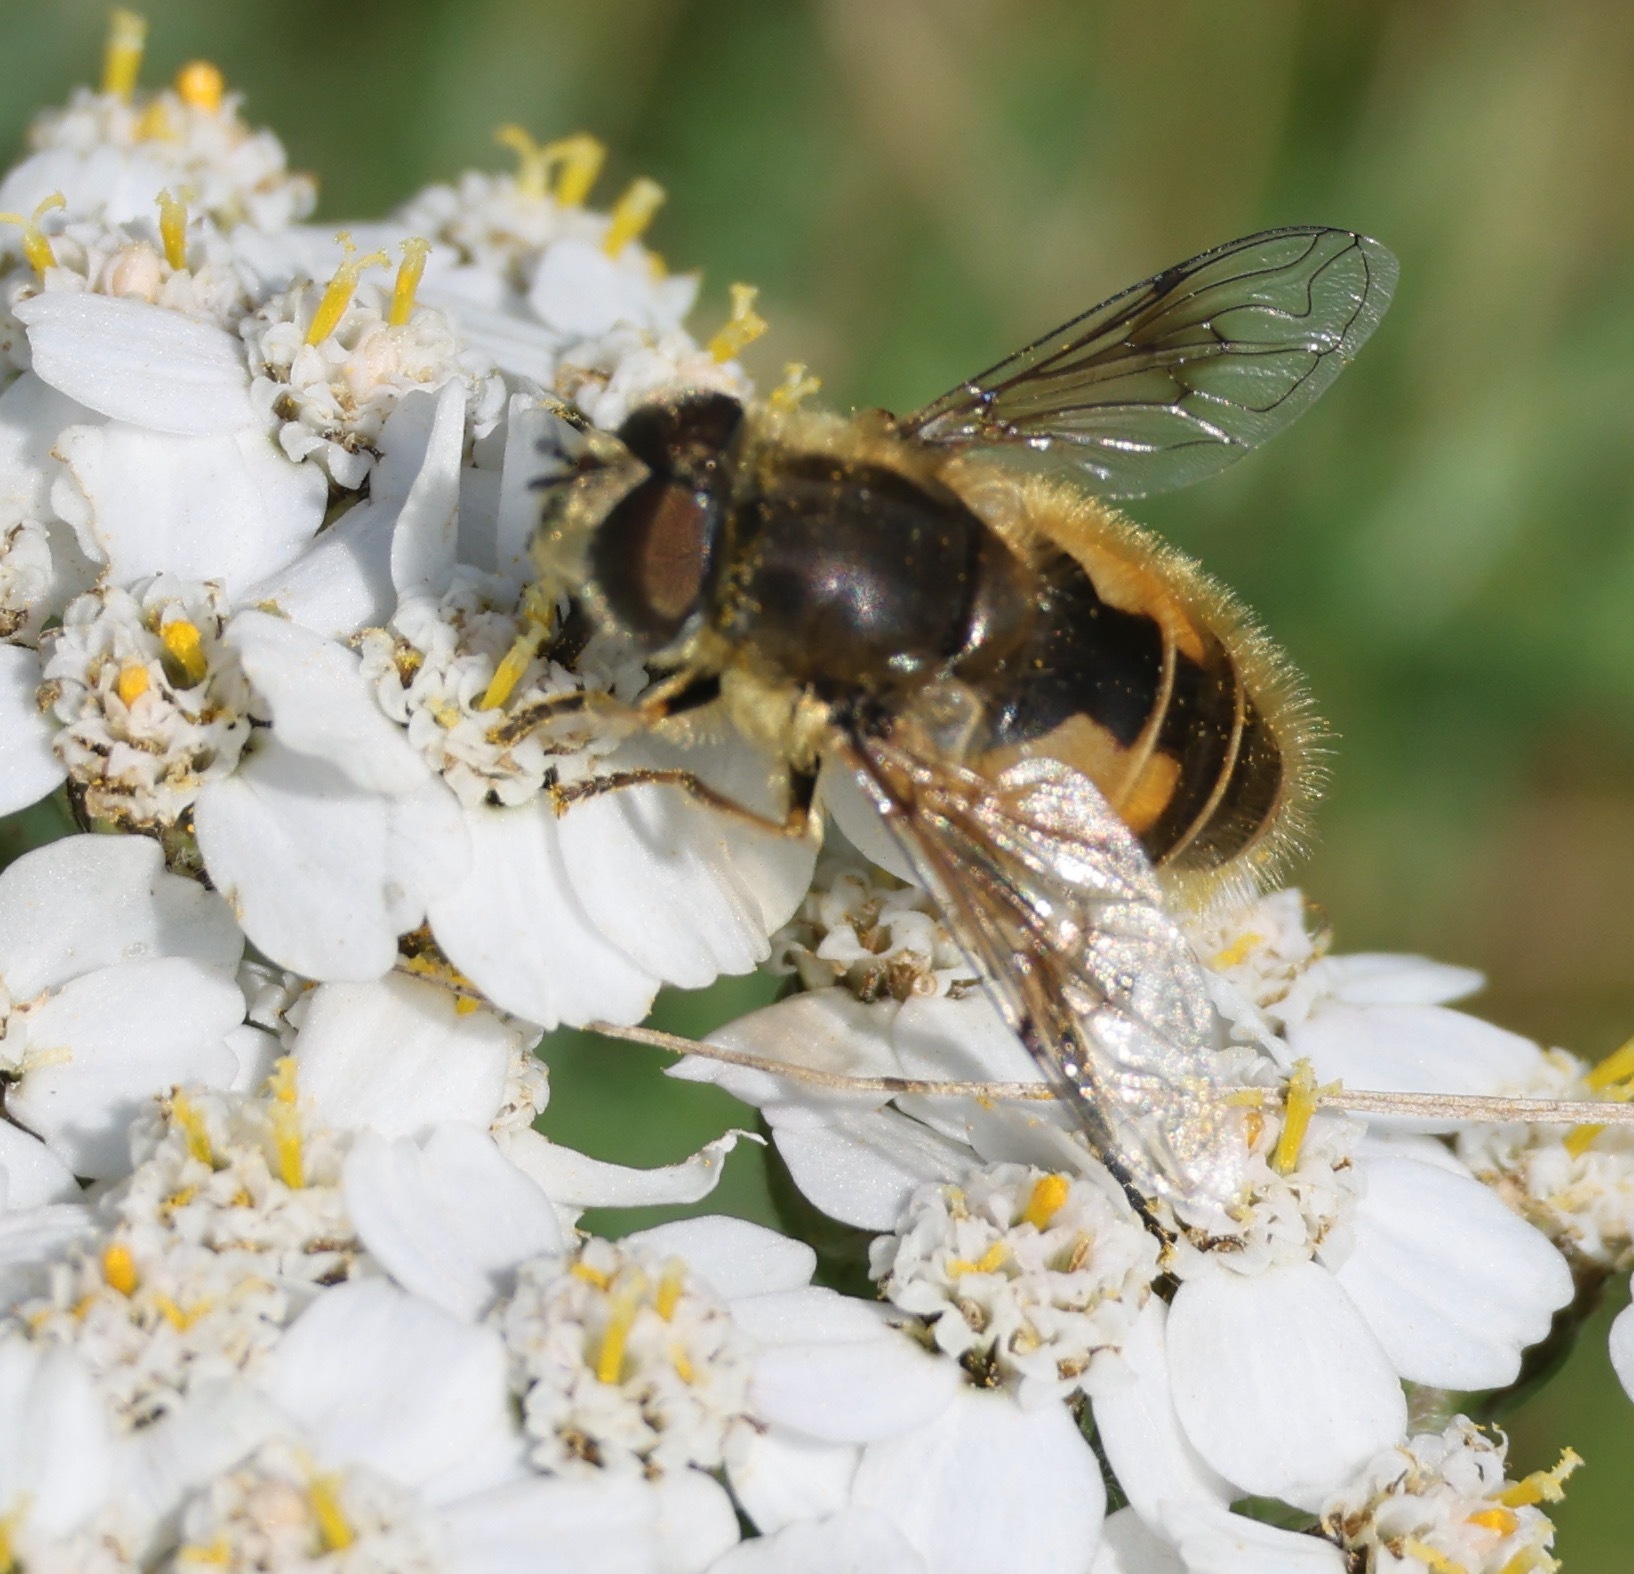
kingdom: Animalia
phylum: Arthropoda
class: Insecta
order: Diptera
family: Syrphidae
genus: Eristalis
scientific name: Eristalis abusivus
